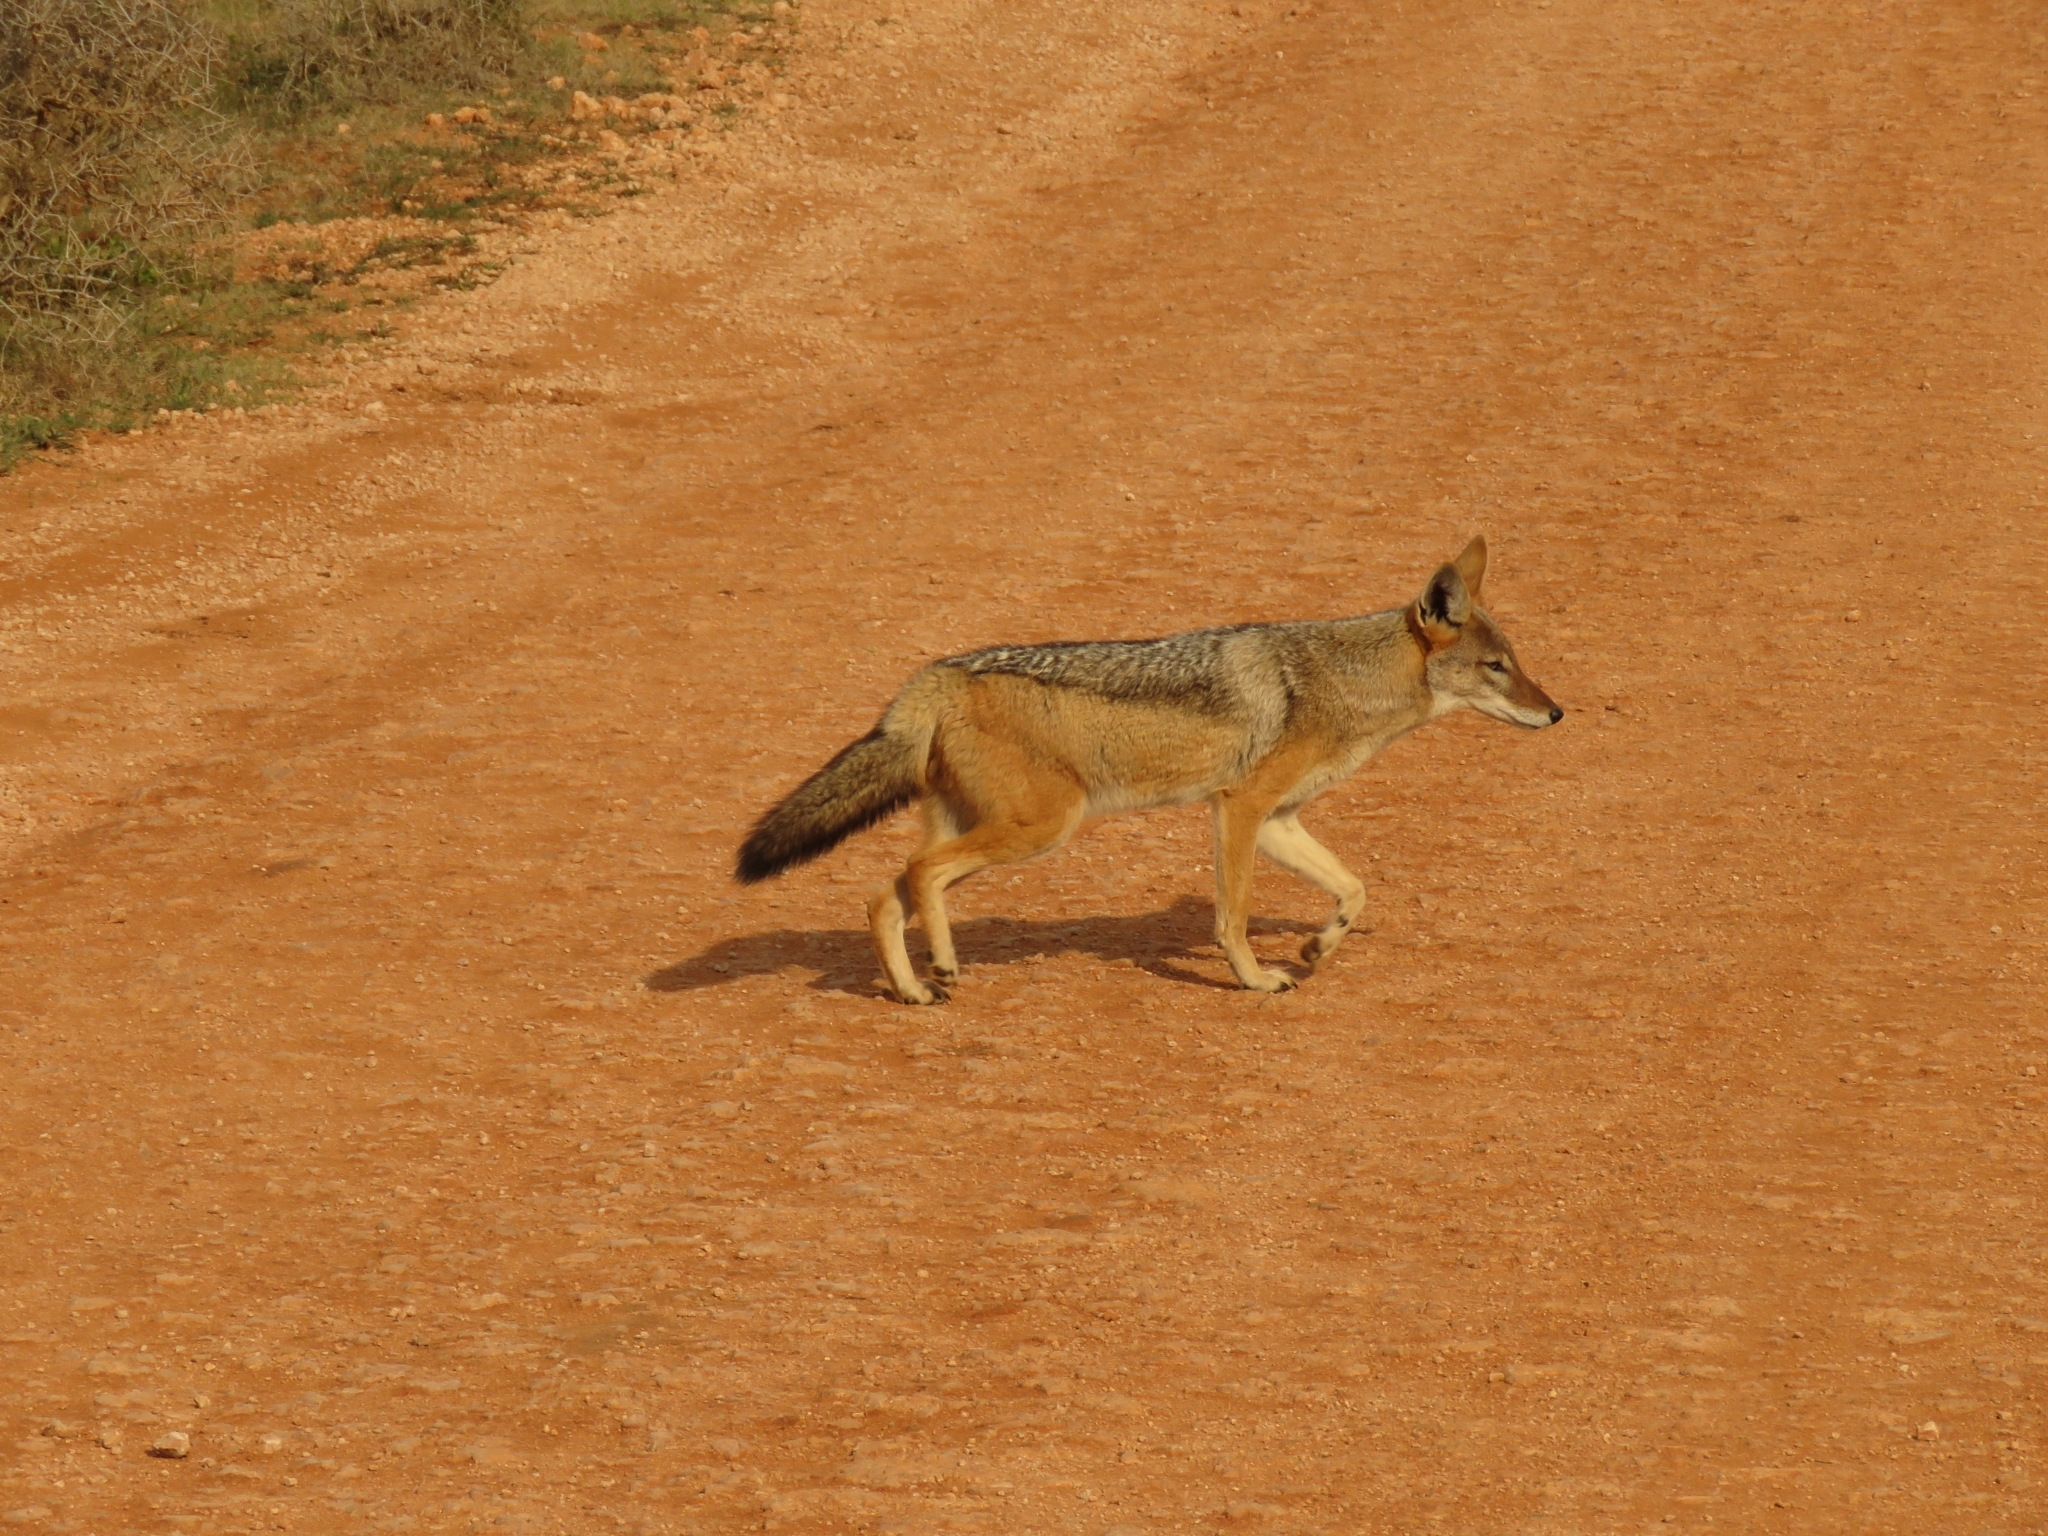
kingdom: Animalia
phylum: Chordata
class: Mammalia
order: Carnivora
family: Canidae
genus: Lupulella
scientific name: Lupulella
